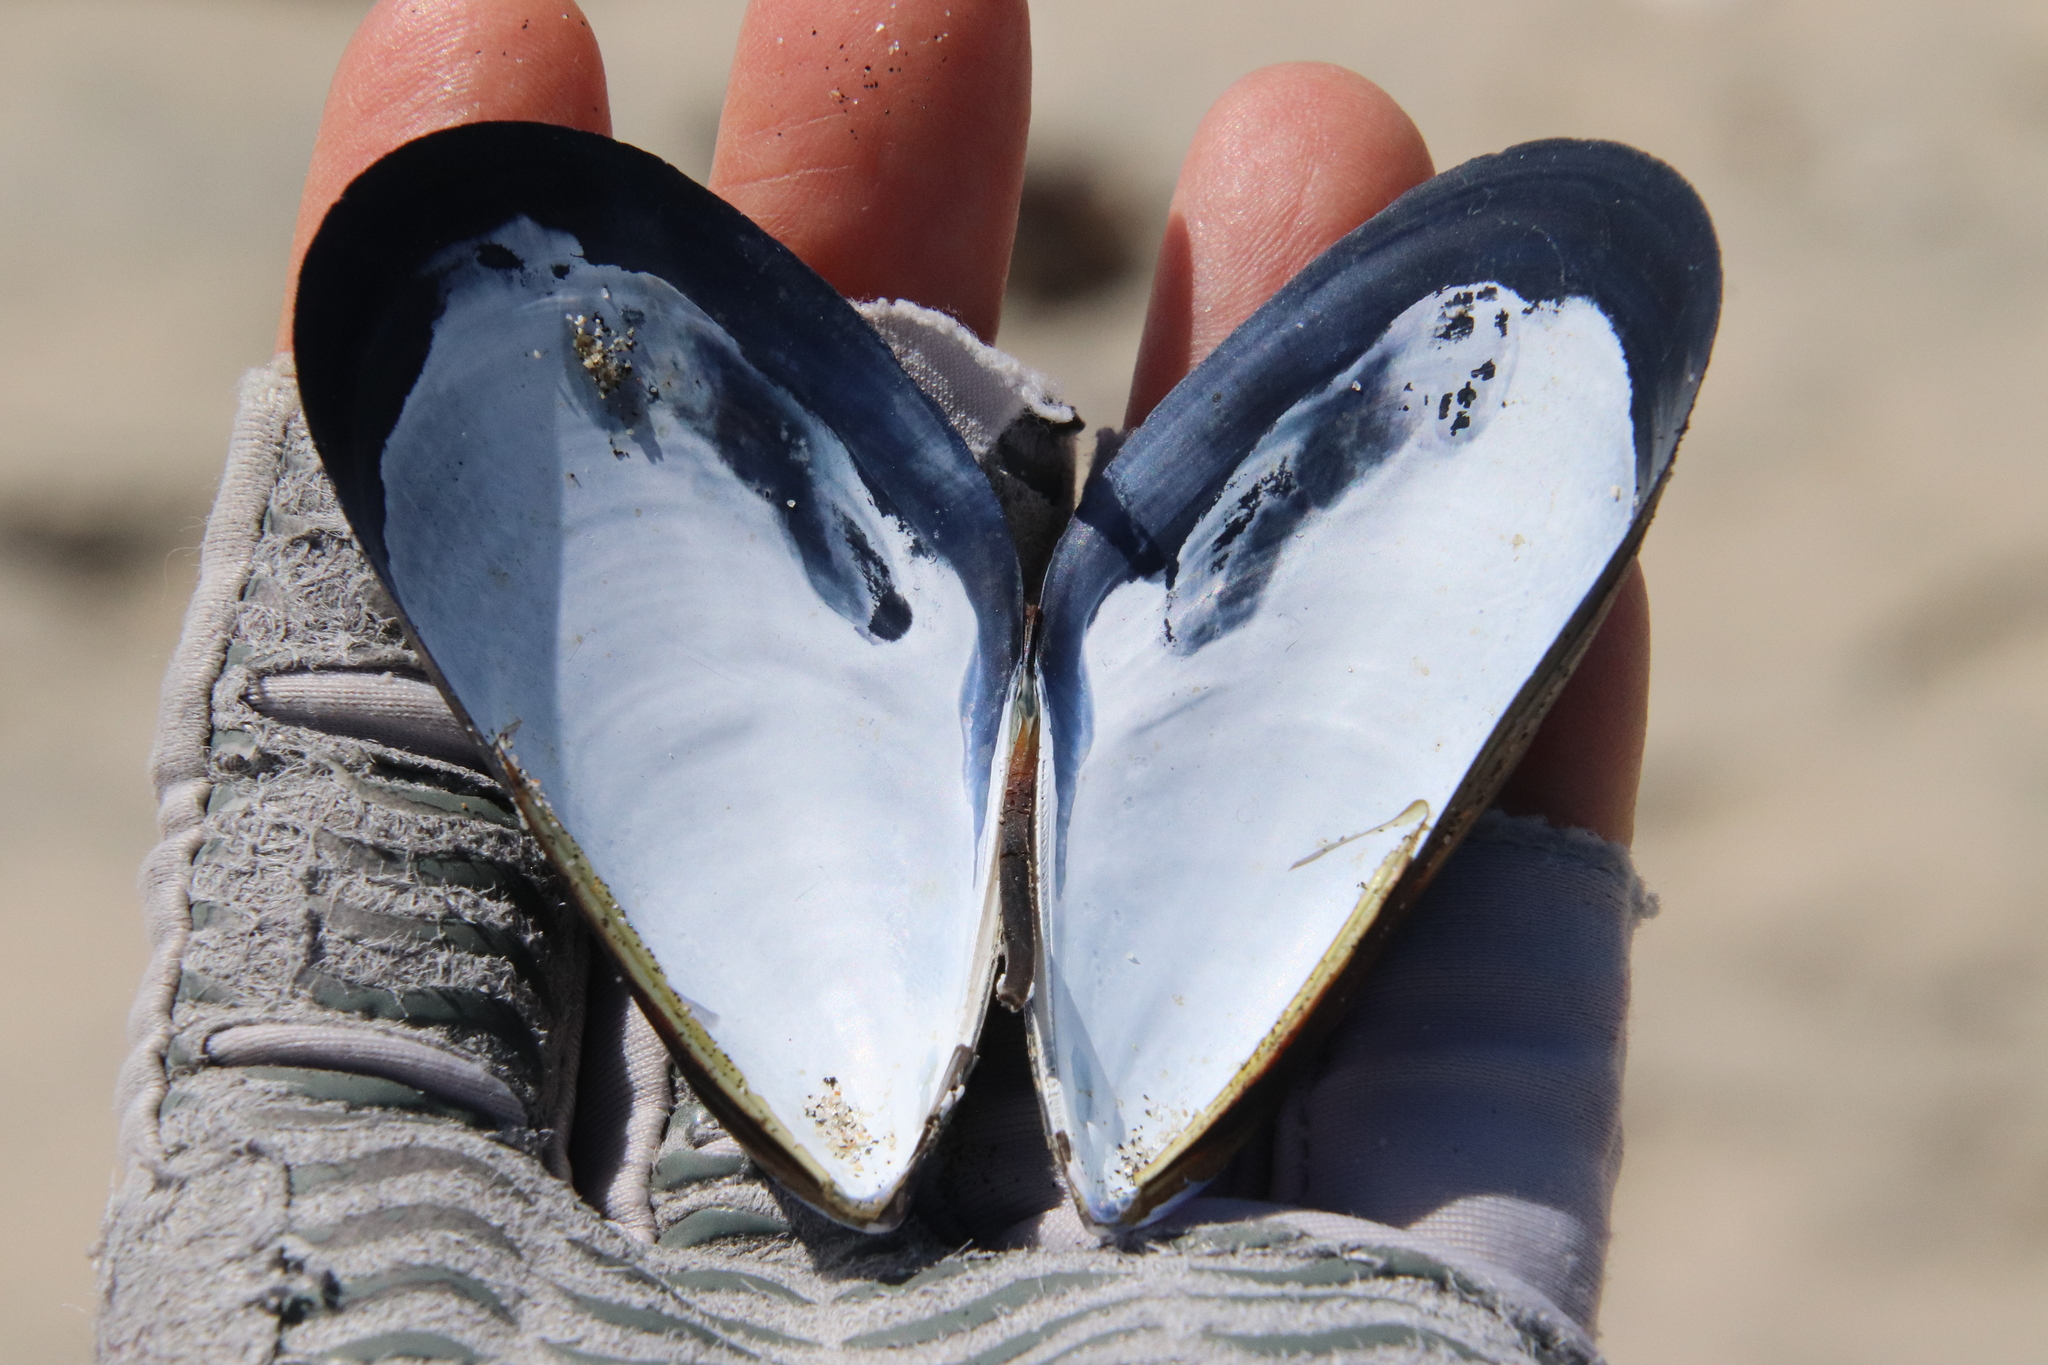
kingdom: Animalia
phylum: Mollusca
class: Bivalvia
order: Mytilida
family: Mytilidae
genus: Mytilus
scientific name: Mytilus galloprovincialis
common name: Mediterranean mussel
